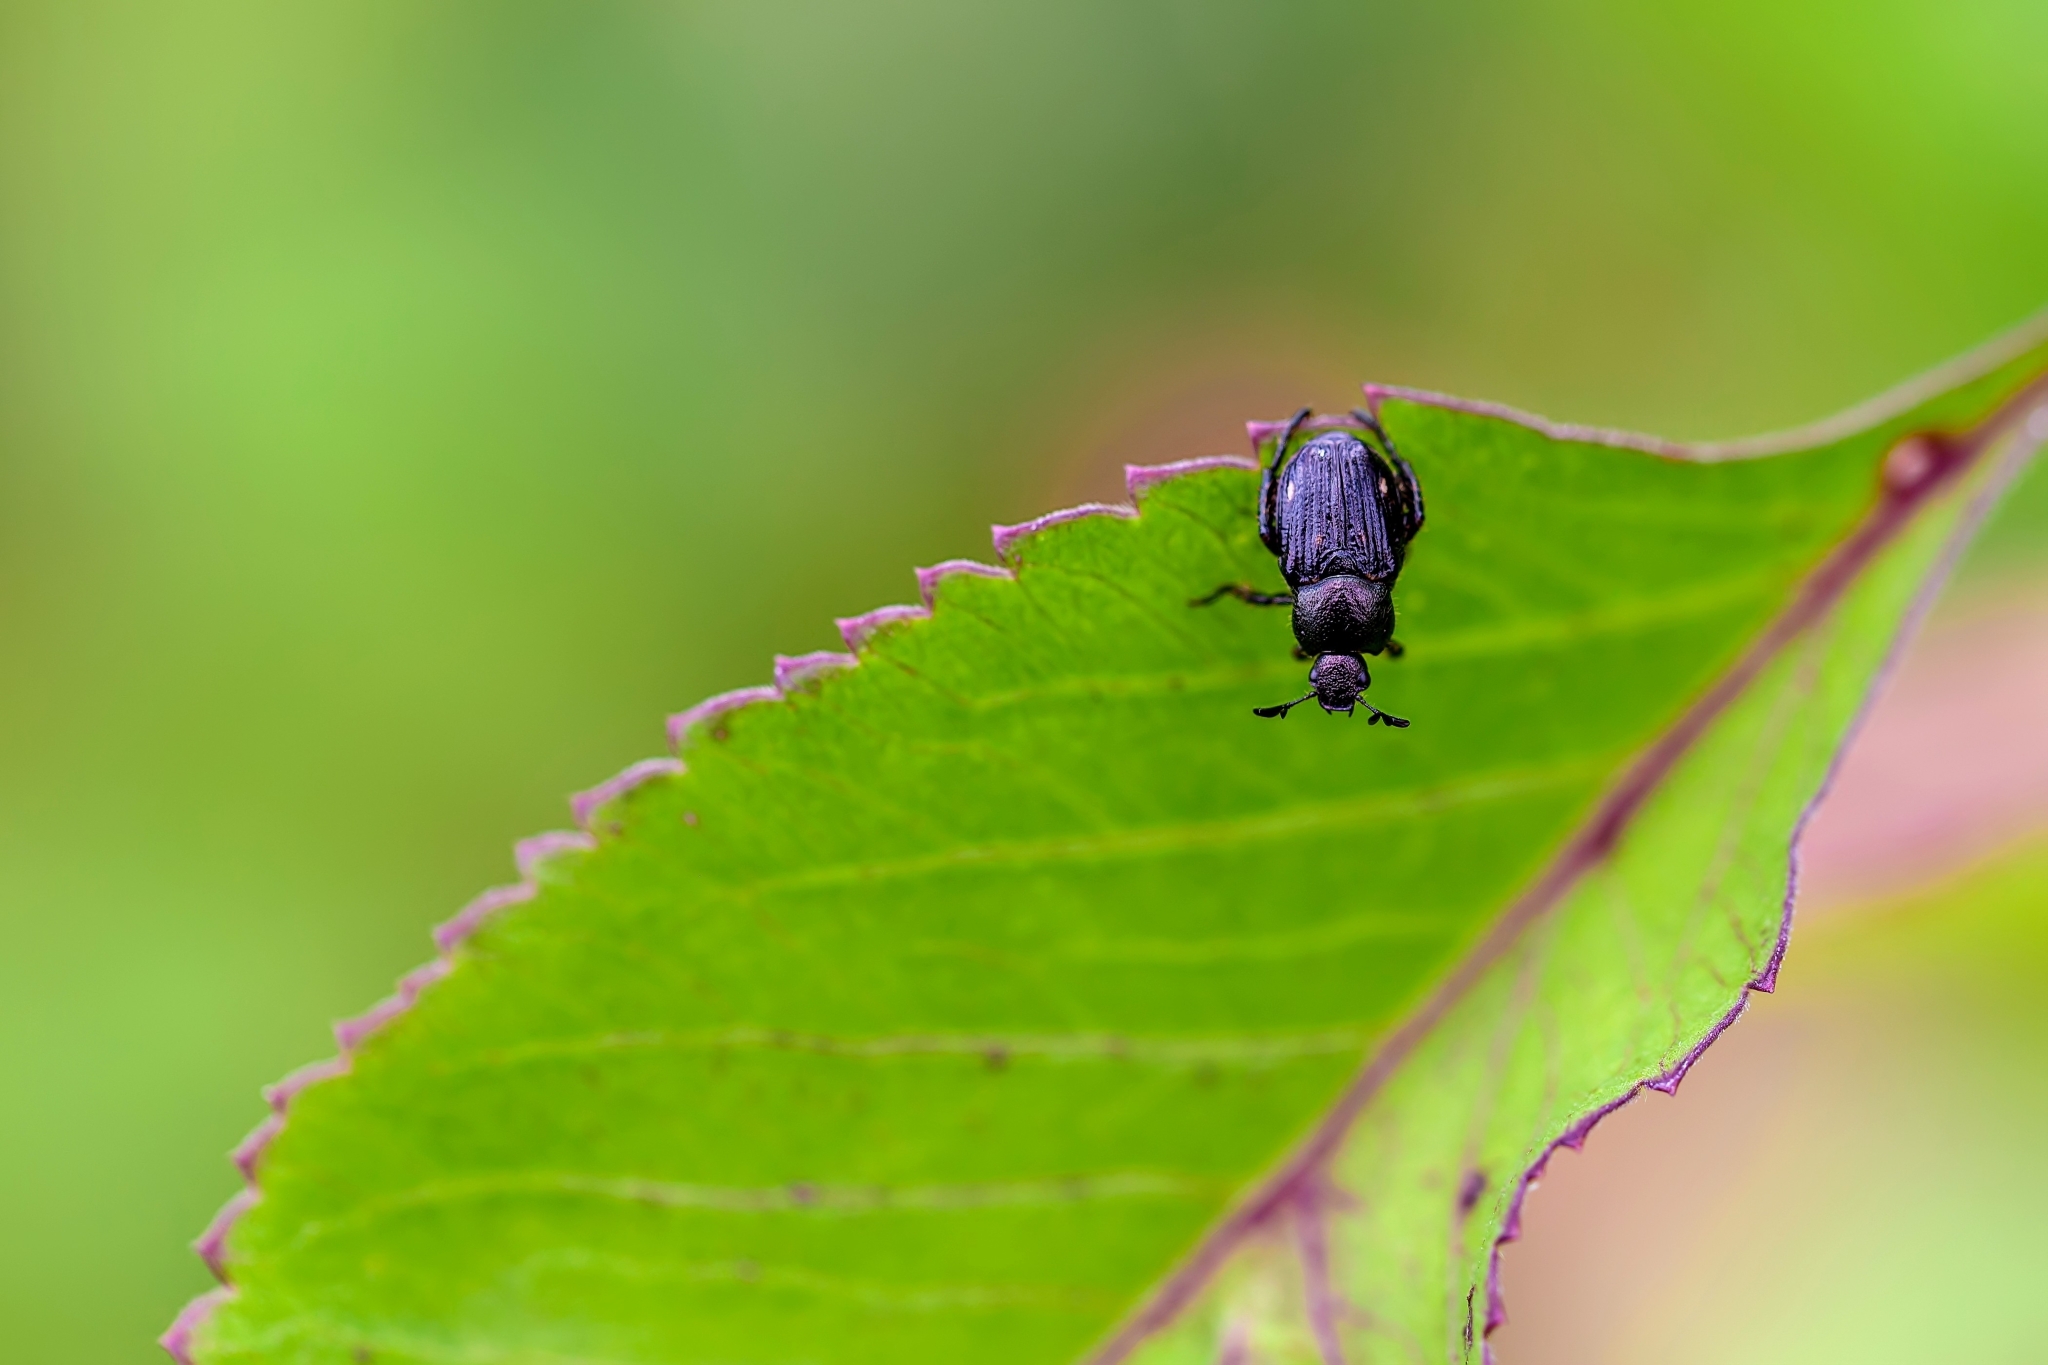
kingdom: Animalia
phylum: Arthropoda
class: Insecta
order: Coleoptera
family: Scarabaeidae
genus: Strigoderma
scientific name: Strigoderma pygmaea
